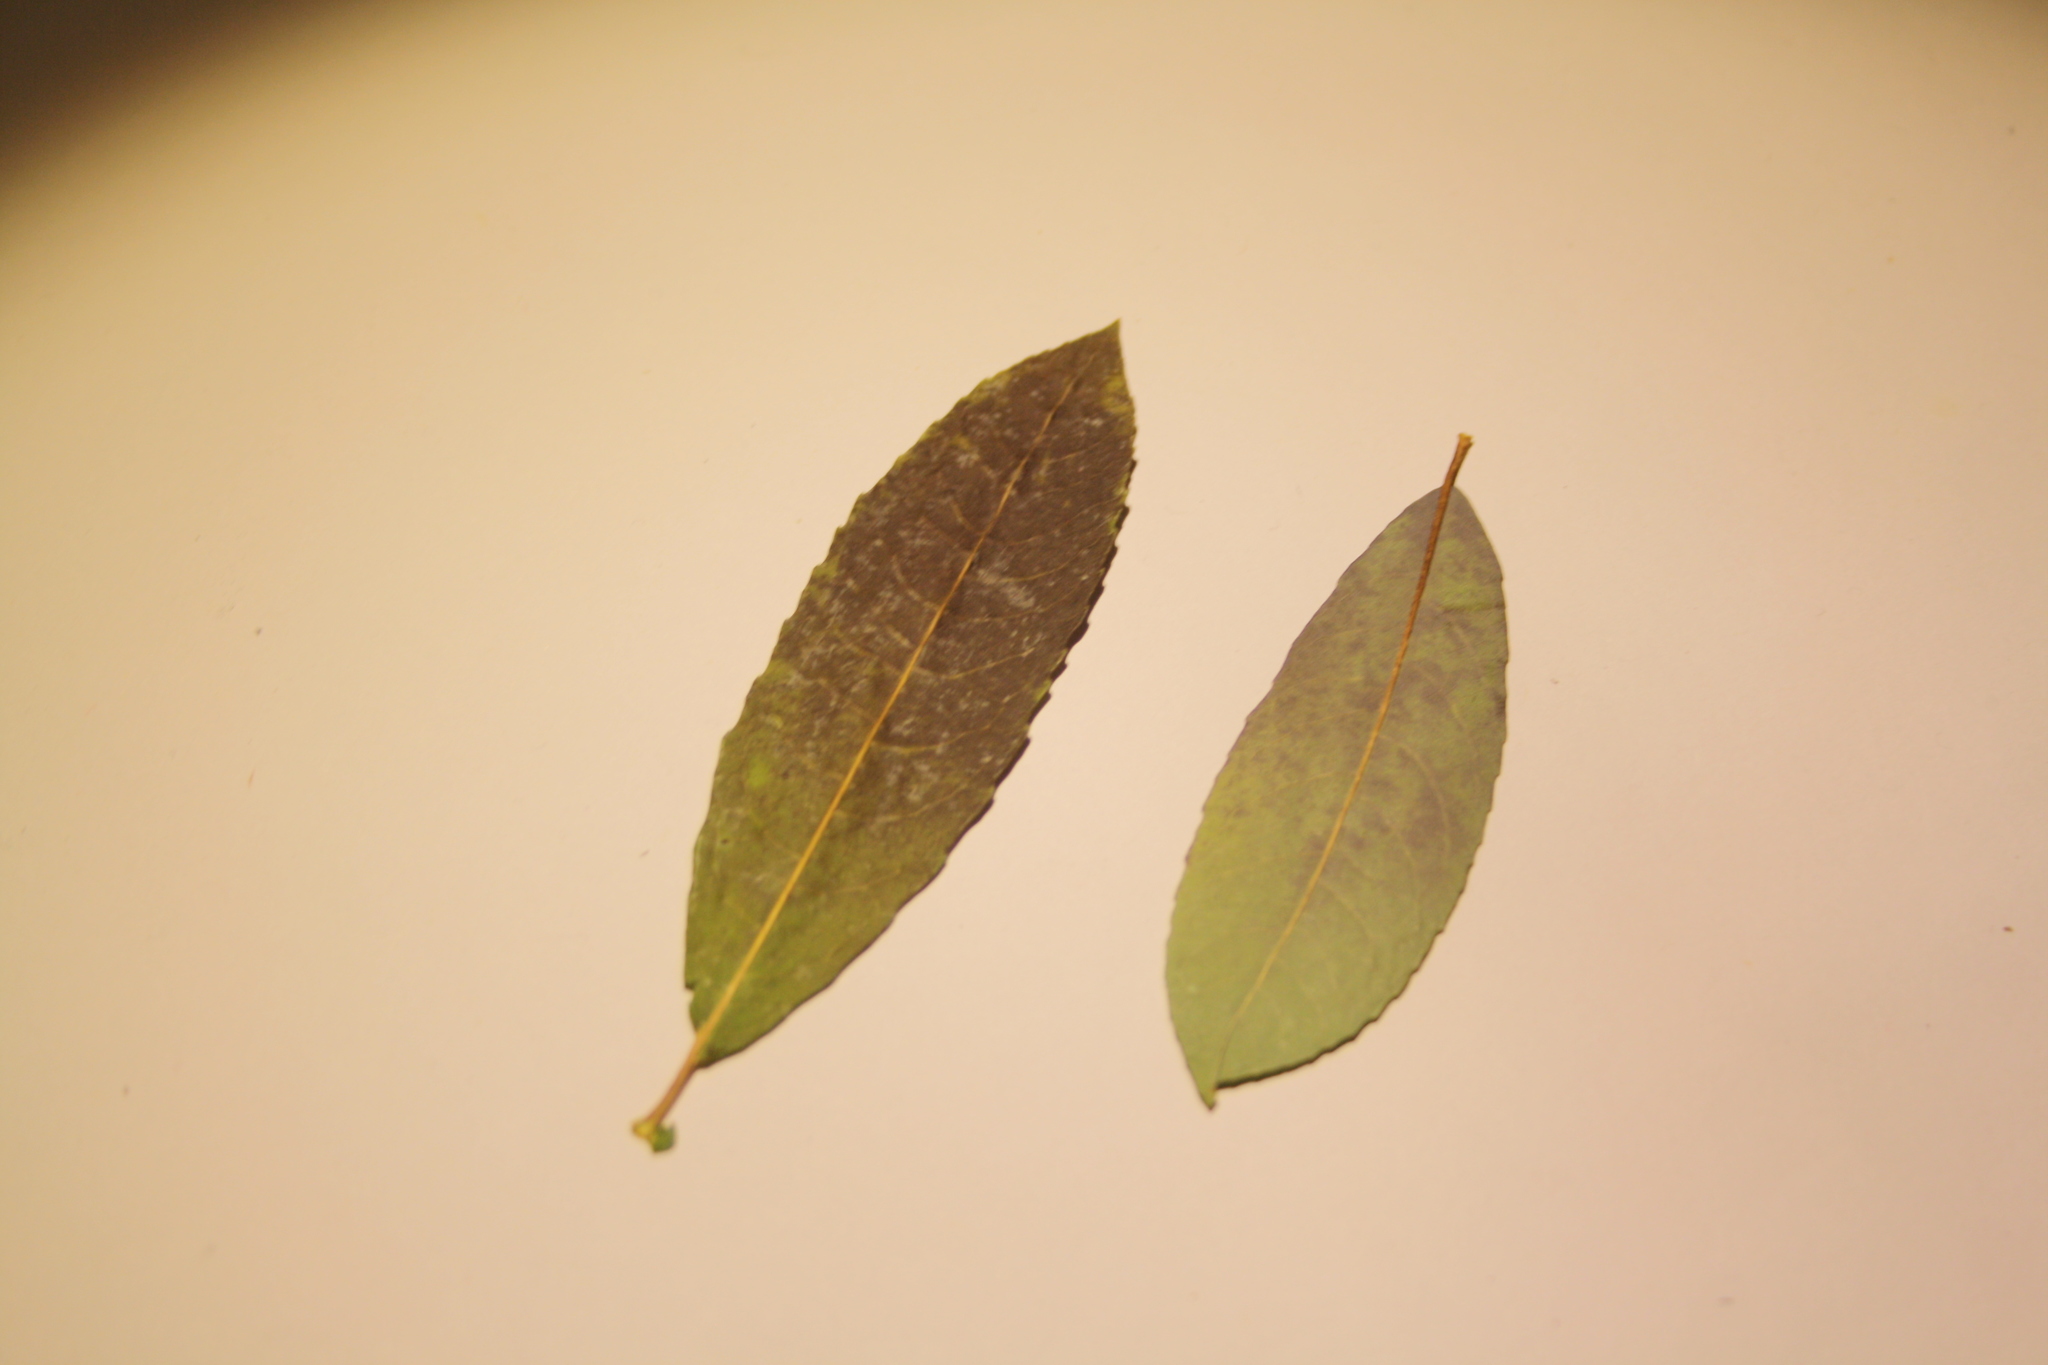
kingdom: Plantae
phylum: Tracheophyta
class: Magnoliopsida
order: Malpighiales
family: Salicaceae
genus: Salix
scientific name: Salix discolor
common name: Glaucous willow
